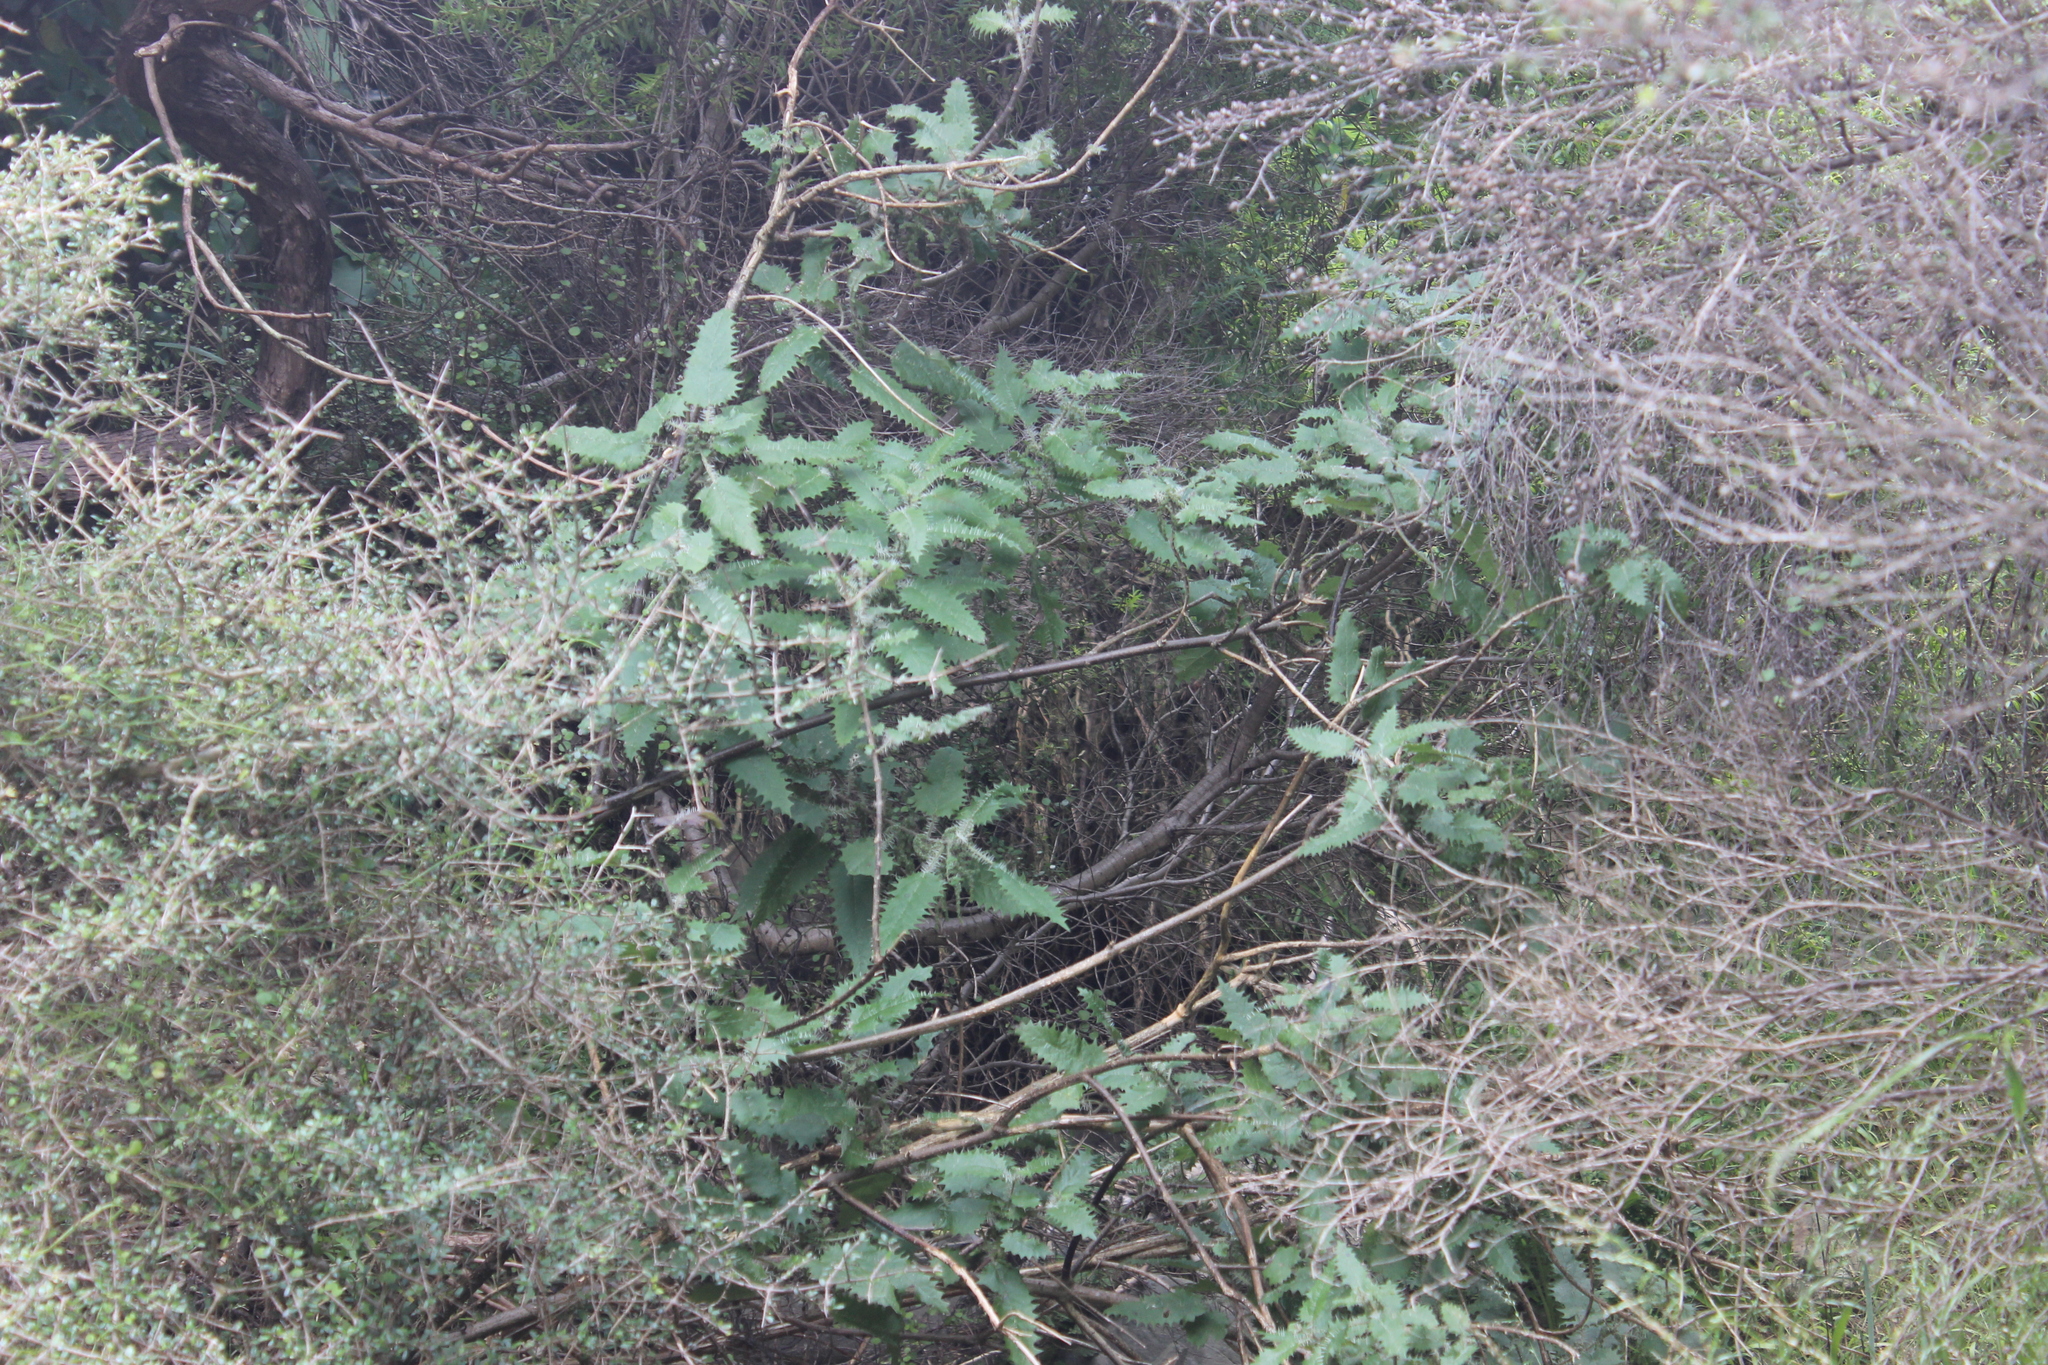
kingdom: Plantae
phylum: Tracheophyta
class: Magnoliopsida
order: Rosales
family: Urticaceae
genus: Urtica
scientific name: Urtica ferox
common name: Tree nettle
